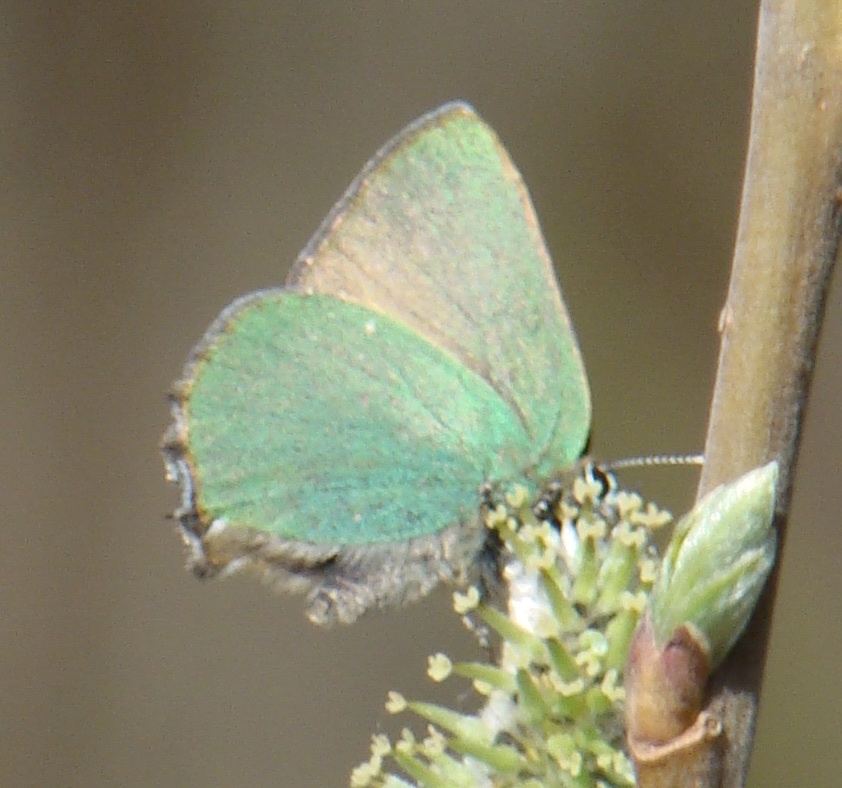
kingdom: Animalia
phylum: Arthropoda
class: Insecta
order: Lepidoptera
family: Lycaenidae
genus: Callophrys
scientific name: Callophrys rubi
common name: Green hairstreak
